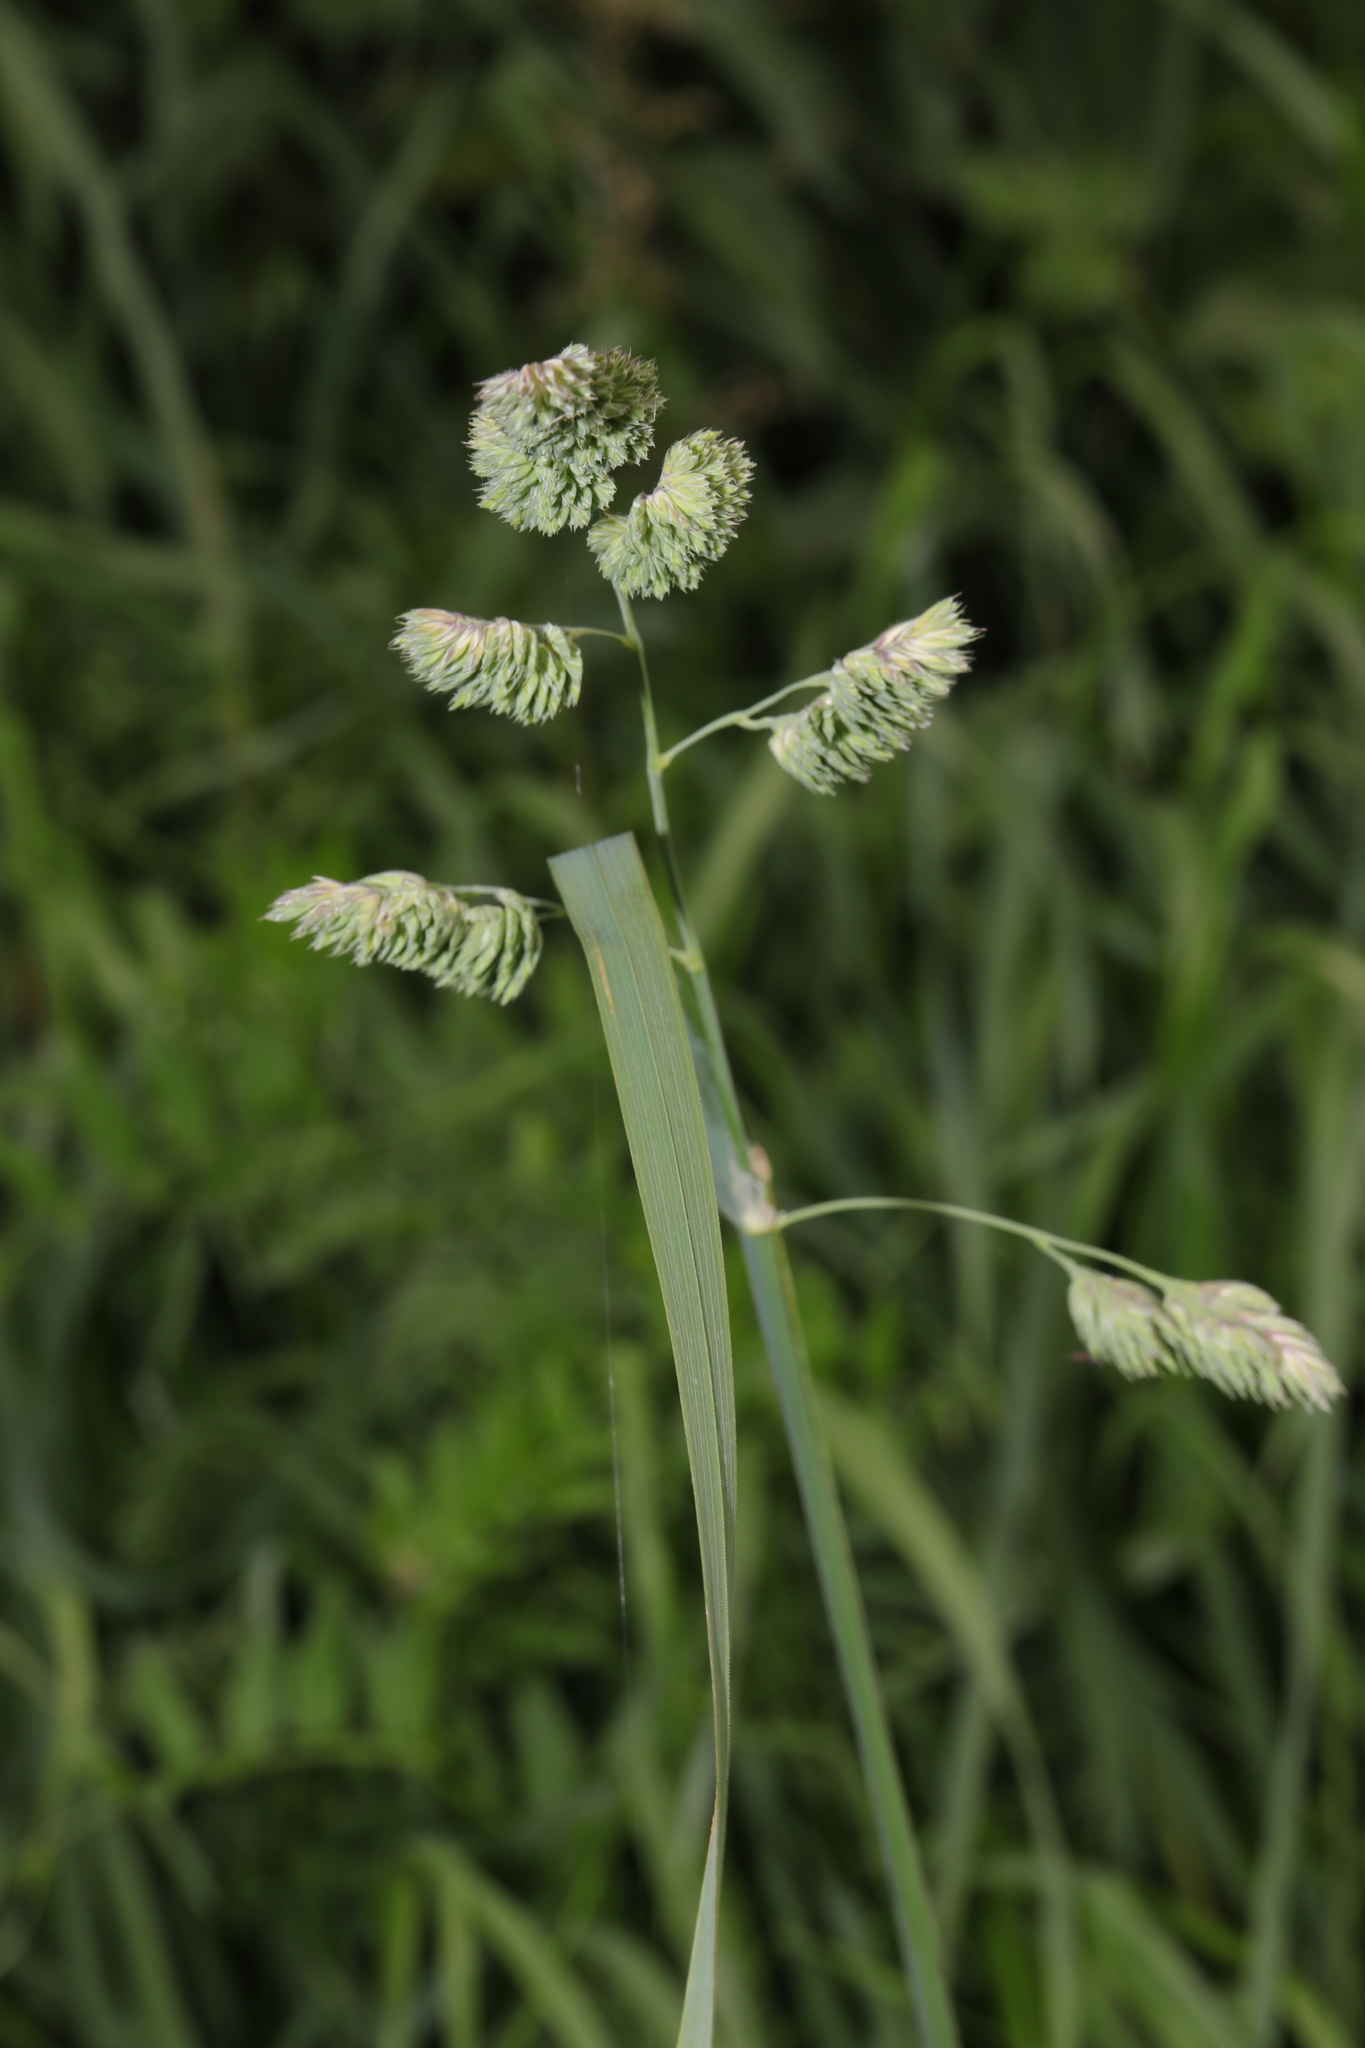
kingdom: Plantae
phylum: Tracheophyta
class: Liliopsida
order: Poales
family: Poaceae
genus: Dactylis
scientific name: Dactylis glomerata
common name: Orchardgrass
